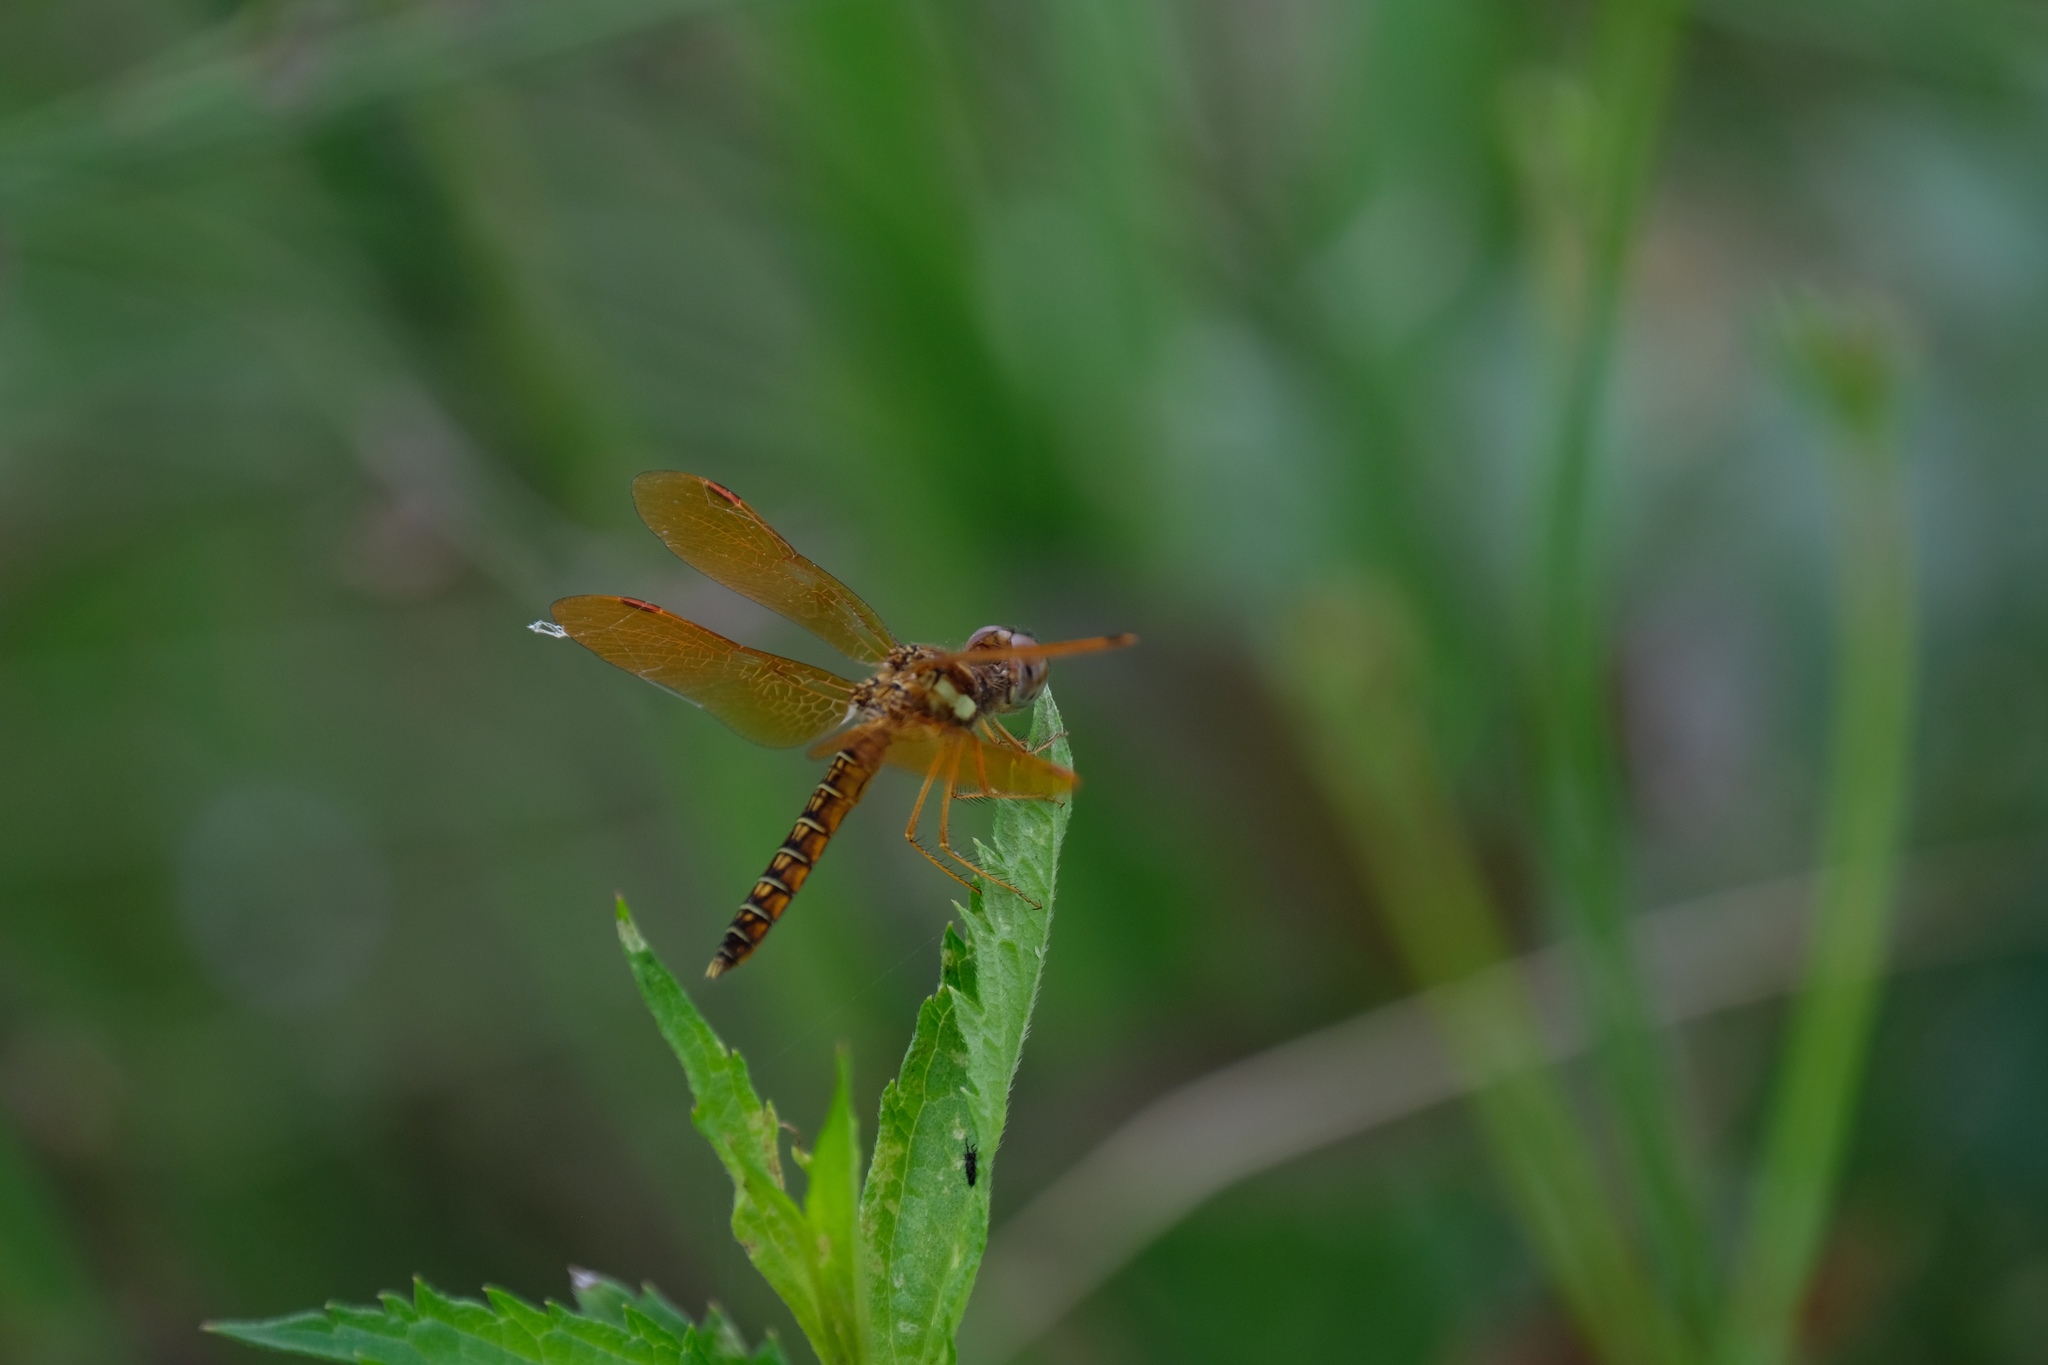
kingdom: Animalia
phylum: Arthropoda
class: Insecta
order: Odonata
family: Libellulidae
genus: Perithemis
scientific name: Perithemis tenera
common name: Eastern amberwing
